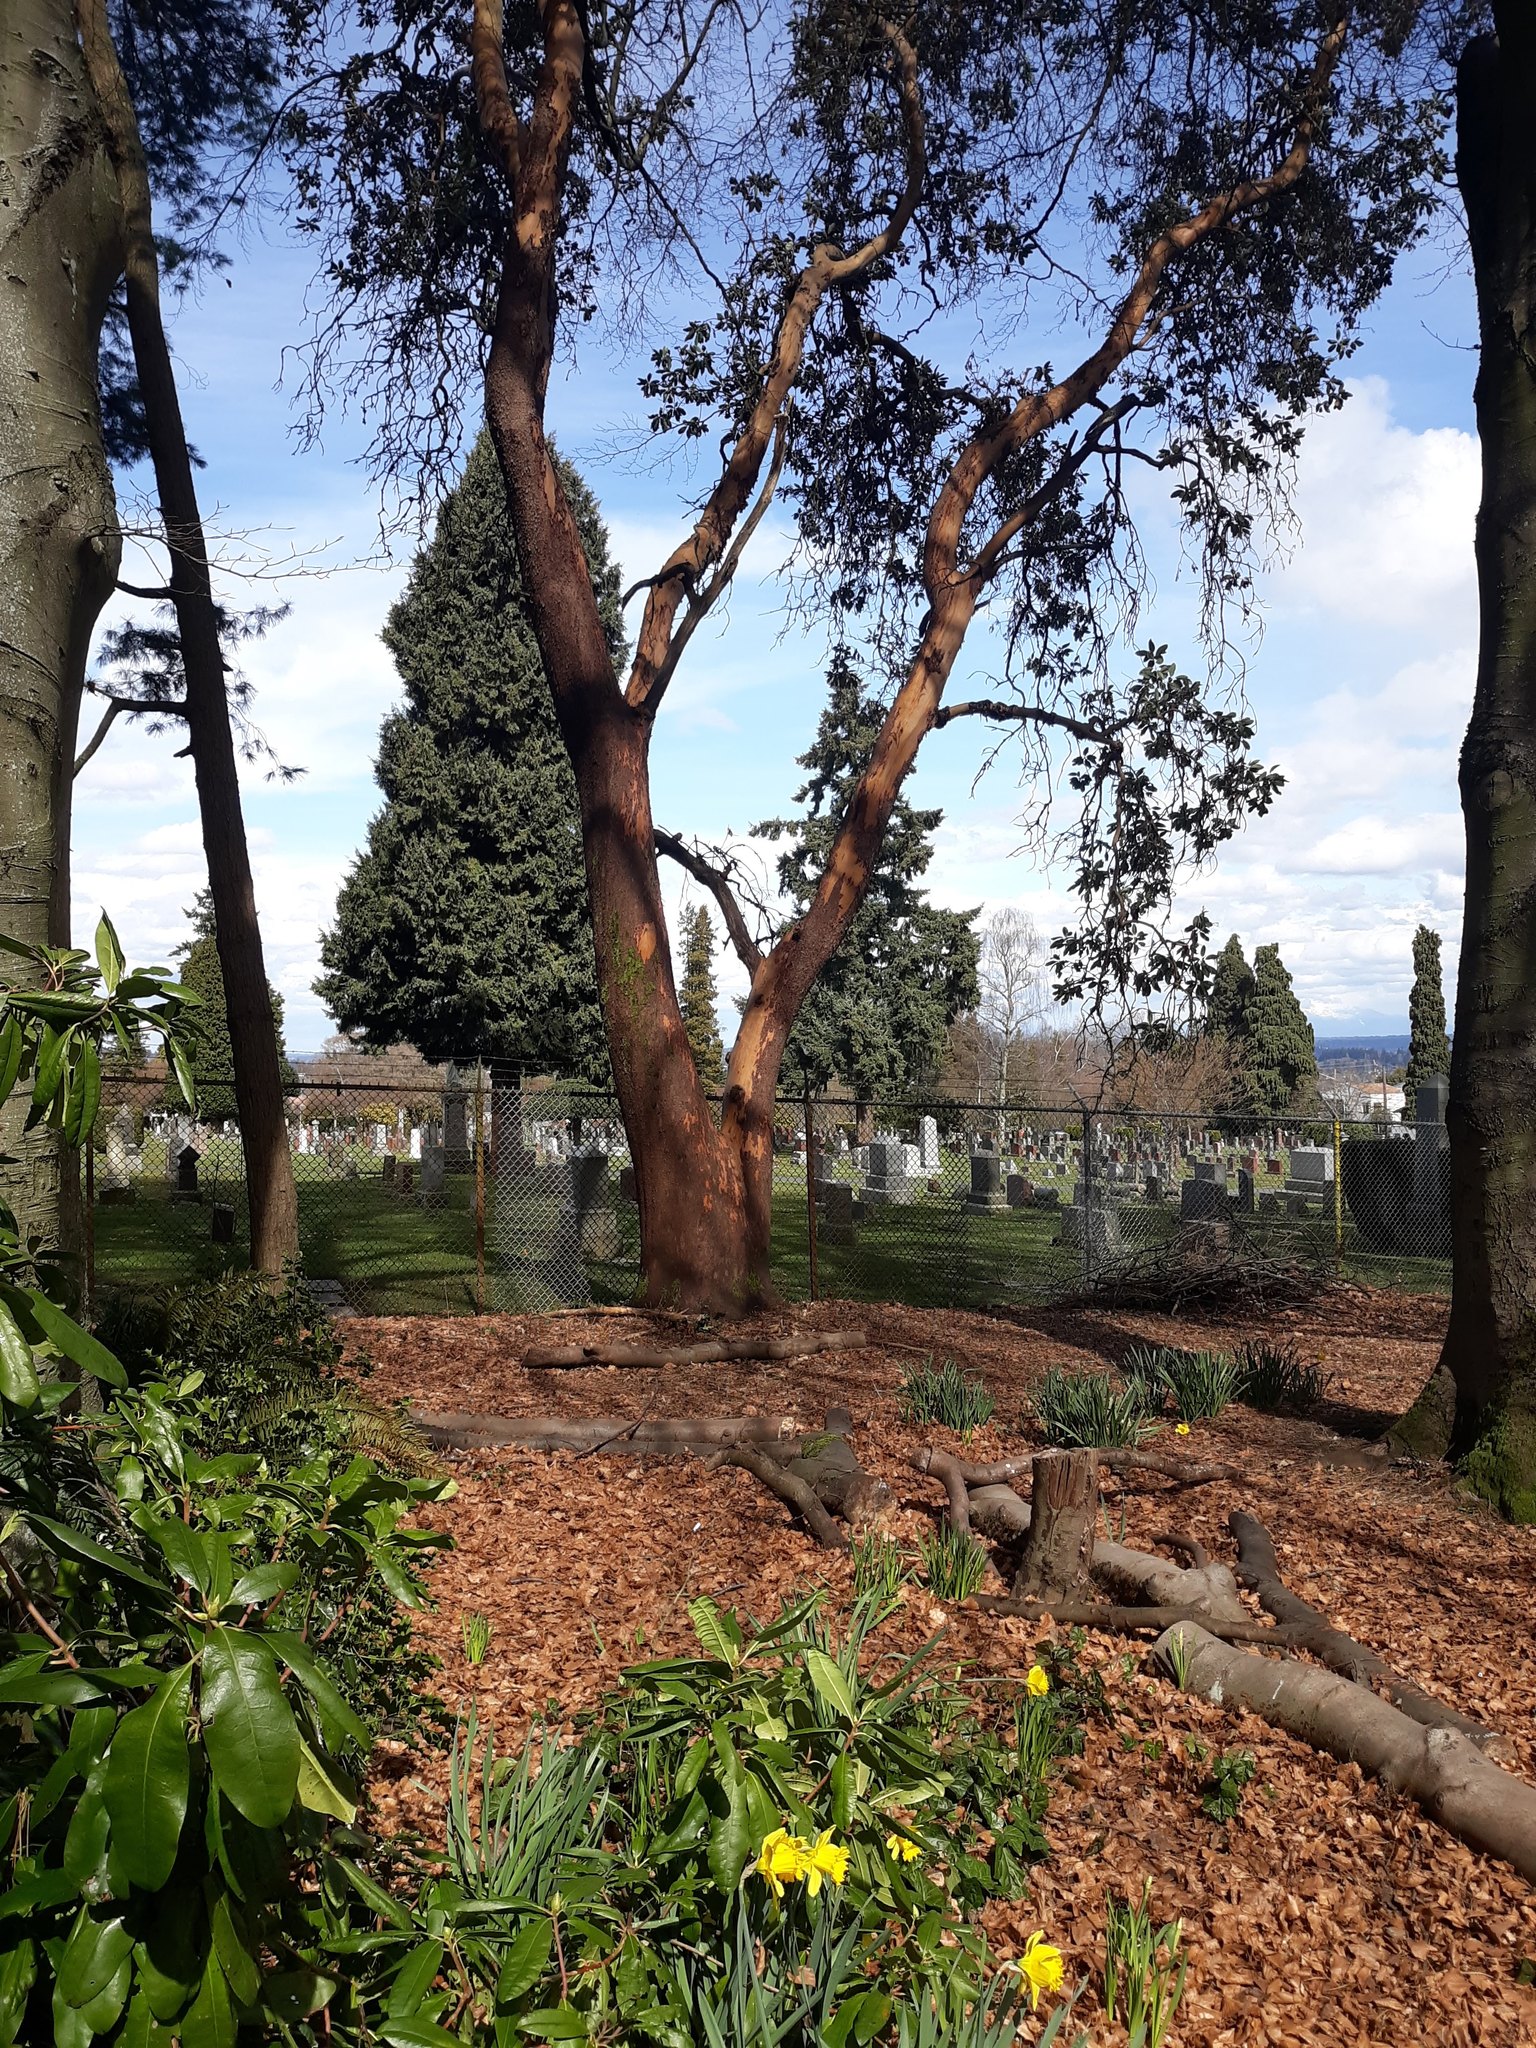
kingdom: Plantae
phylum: Tracheophyta
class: Magnoliopsida
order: Ericales
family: Ericaceae
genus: Arbutus
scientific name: Arbutus menziesii
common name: Pacific madrone
